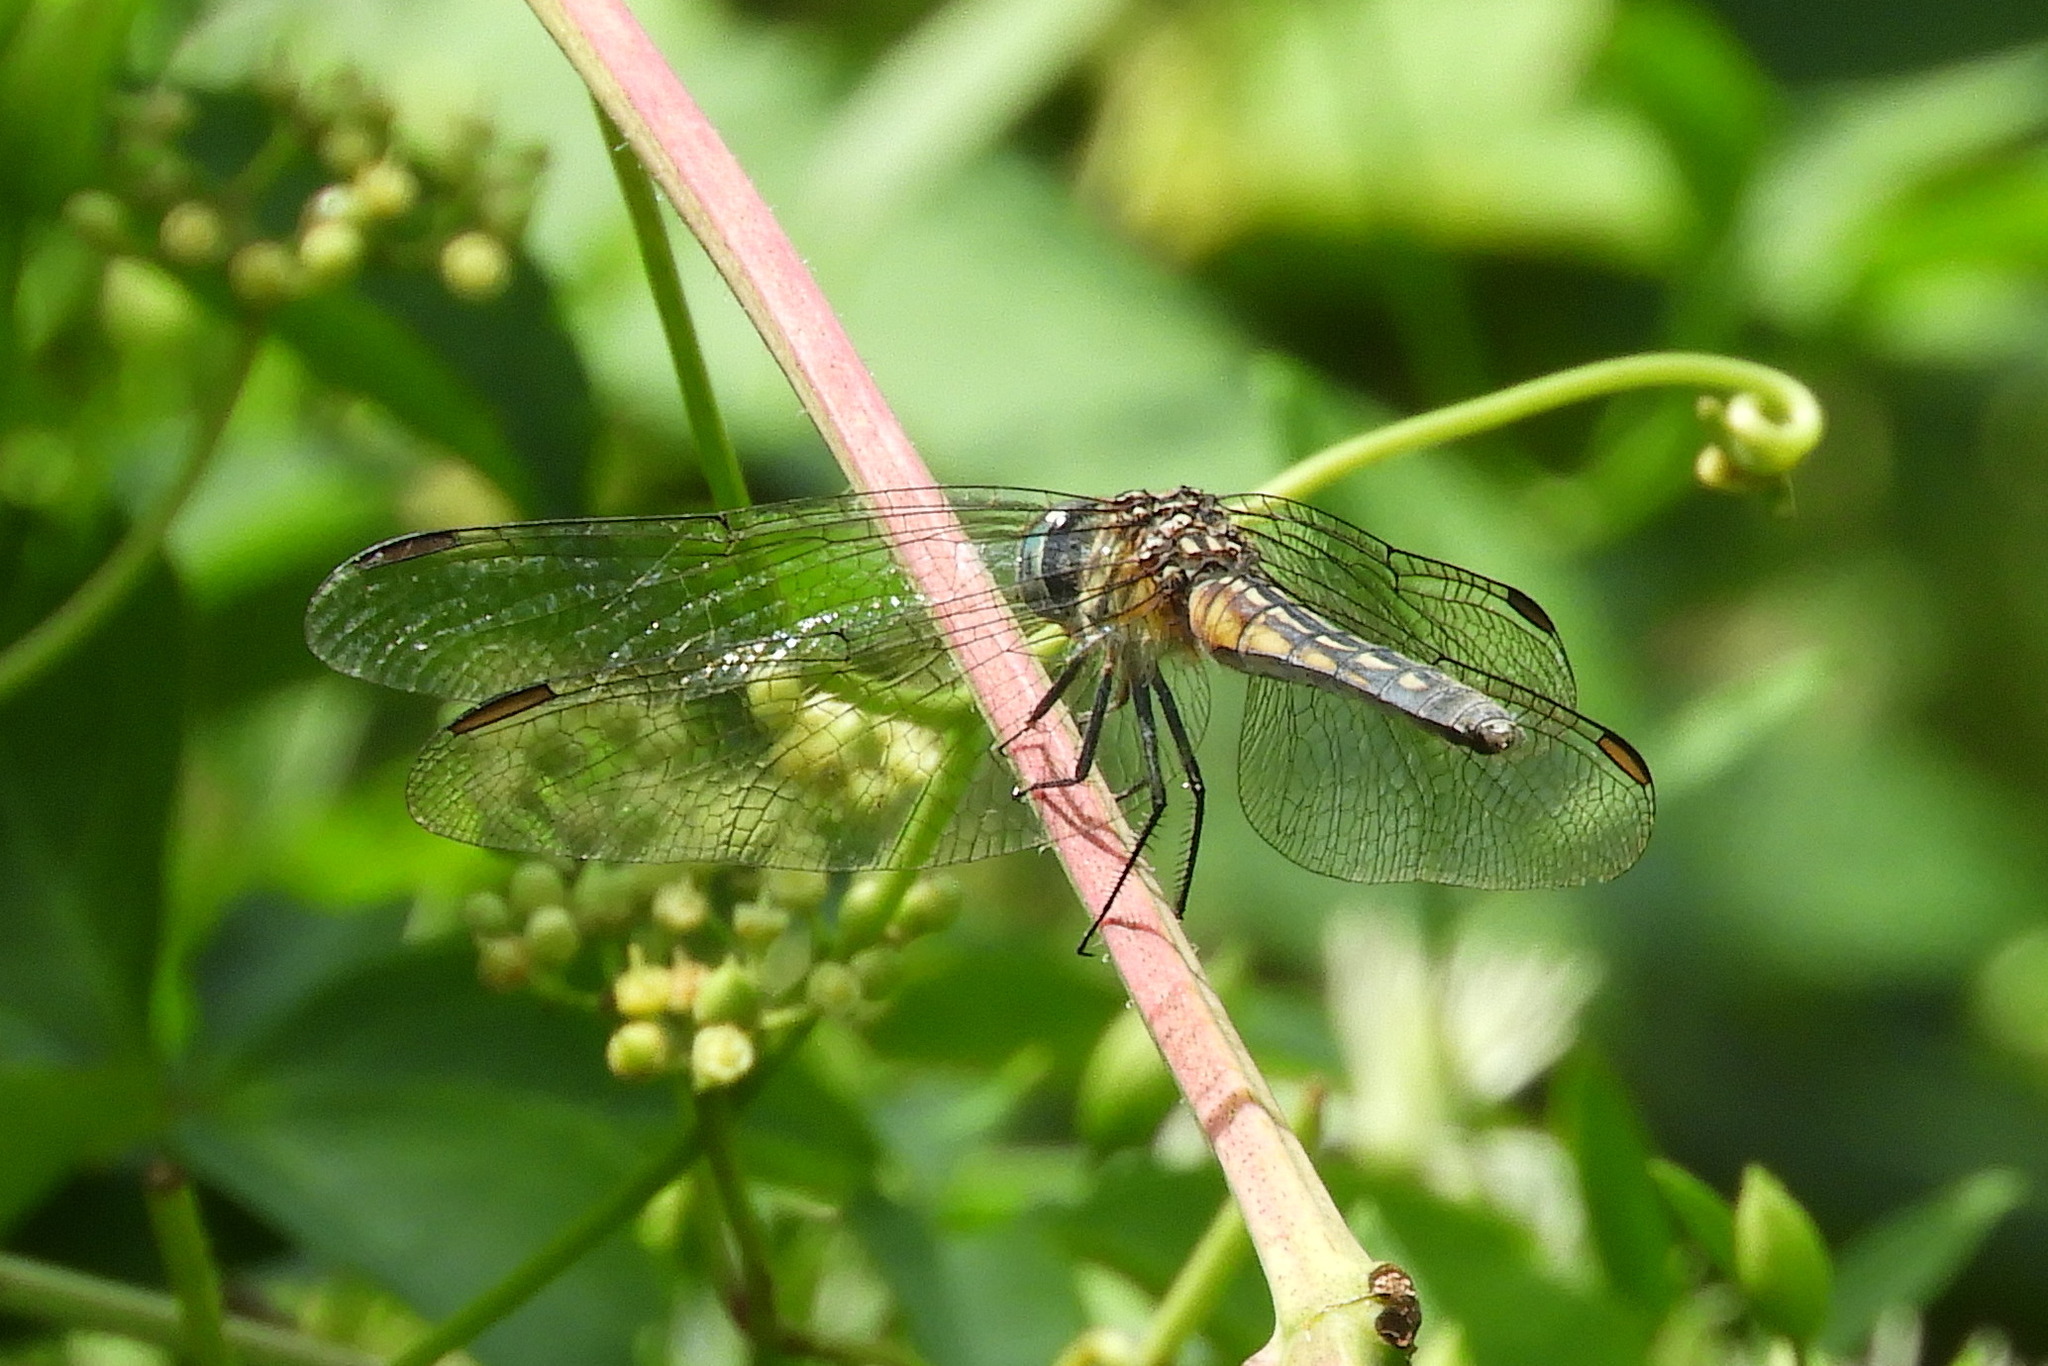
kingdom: Animalia
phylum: Arthropoda
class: Insecta
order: Odonata
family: Libellulidae
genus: Pachydiplax
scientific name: Pachydiplax longipennis
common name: Blue dasher
